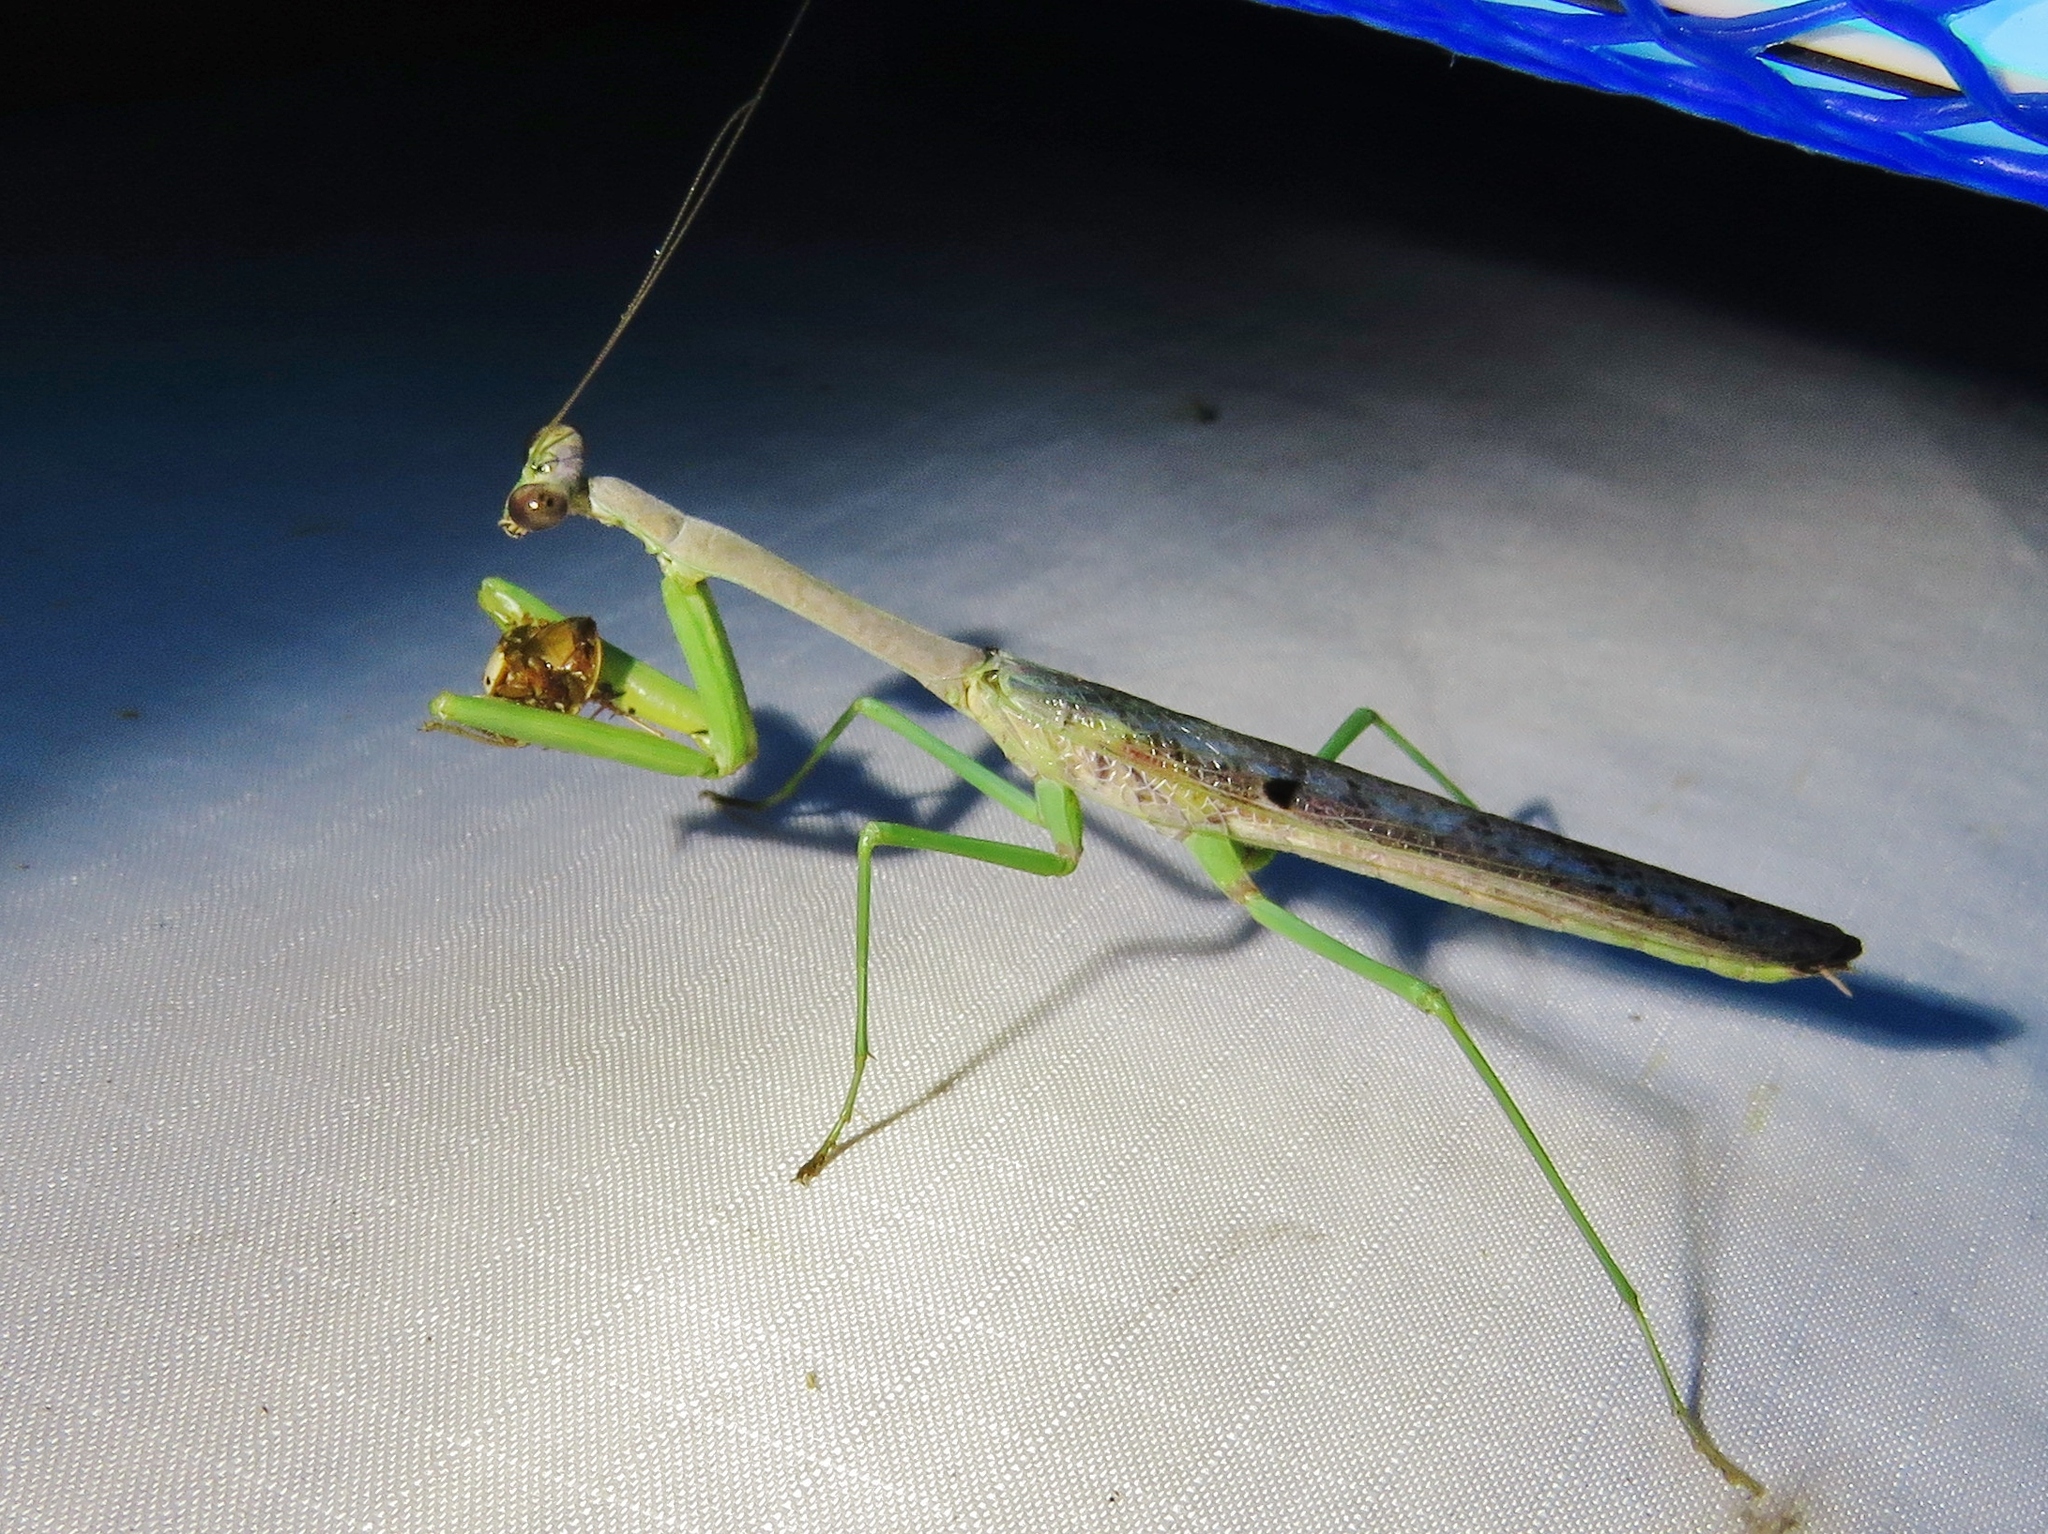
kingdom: Animalia
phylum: Arthropoda
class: Insecta
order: Mantodea
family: Mantidae
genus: Stagmomantis
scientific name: Stagmomantis carolina
